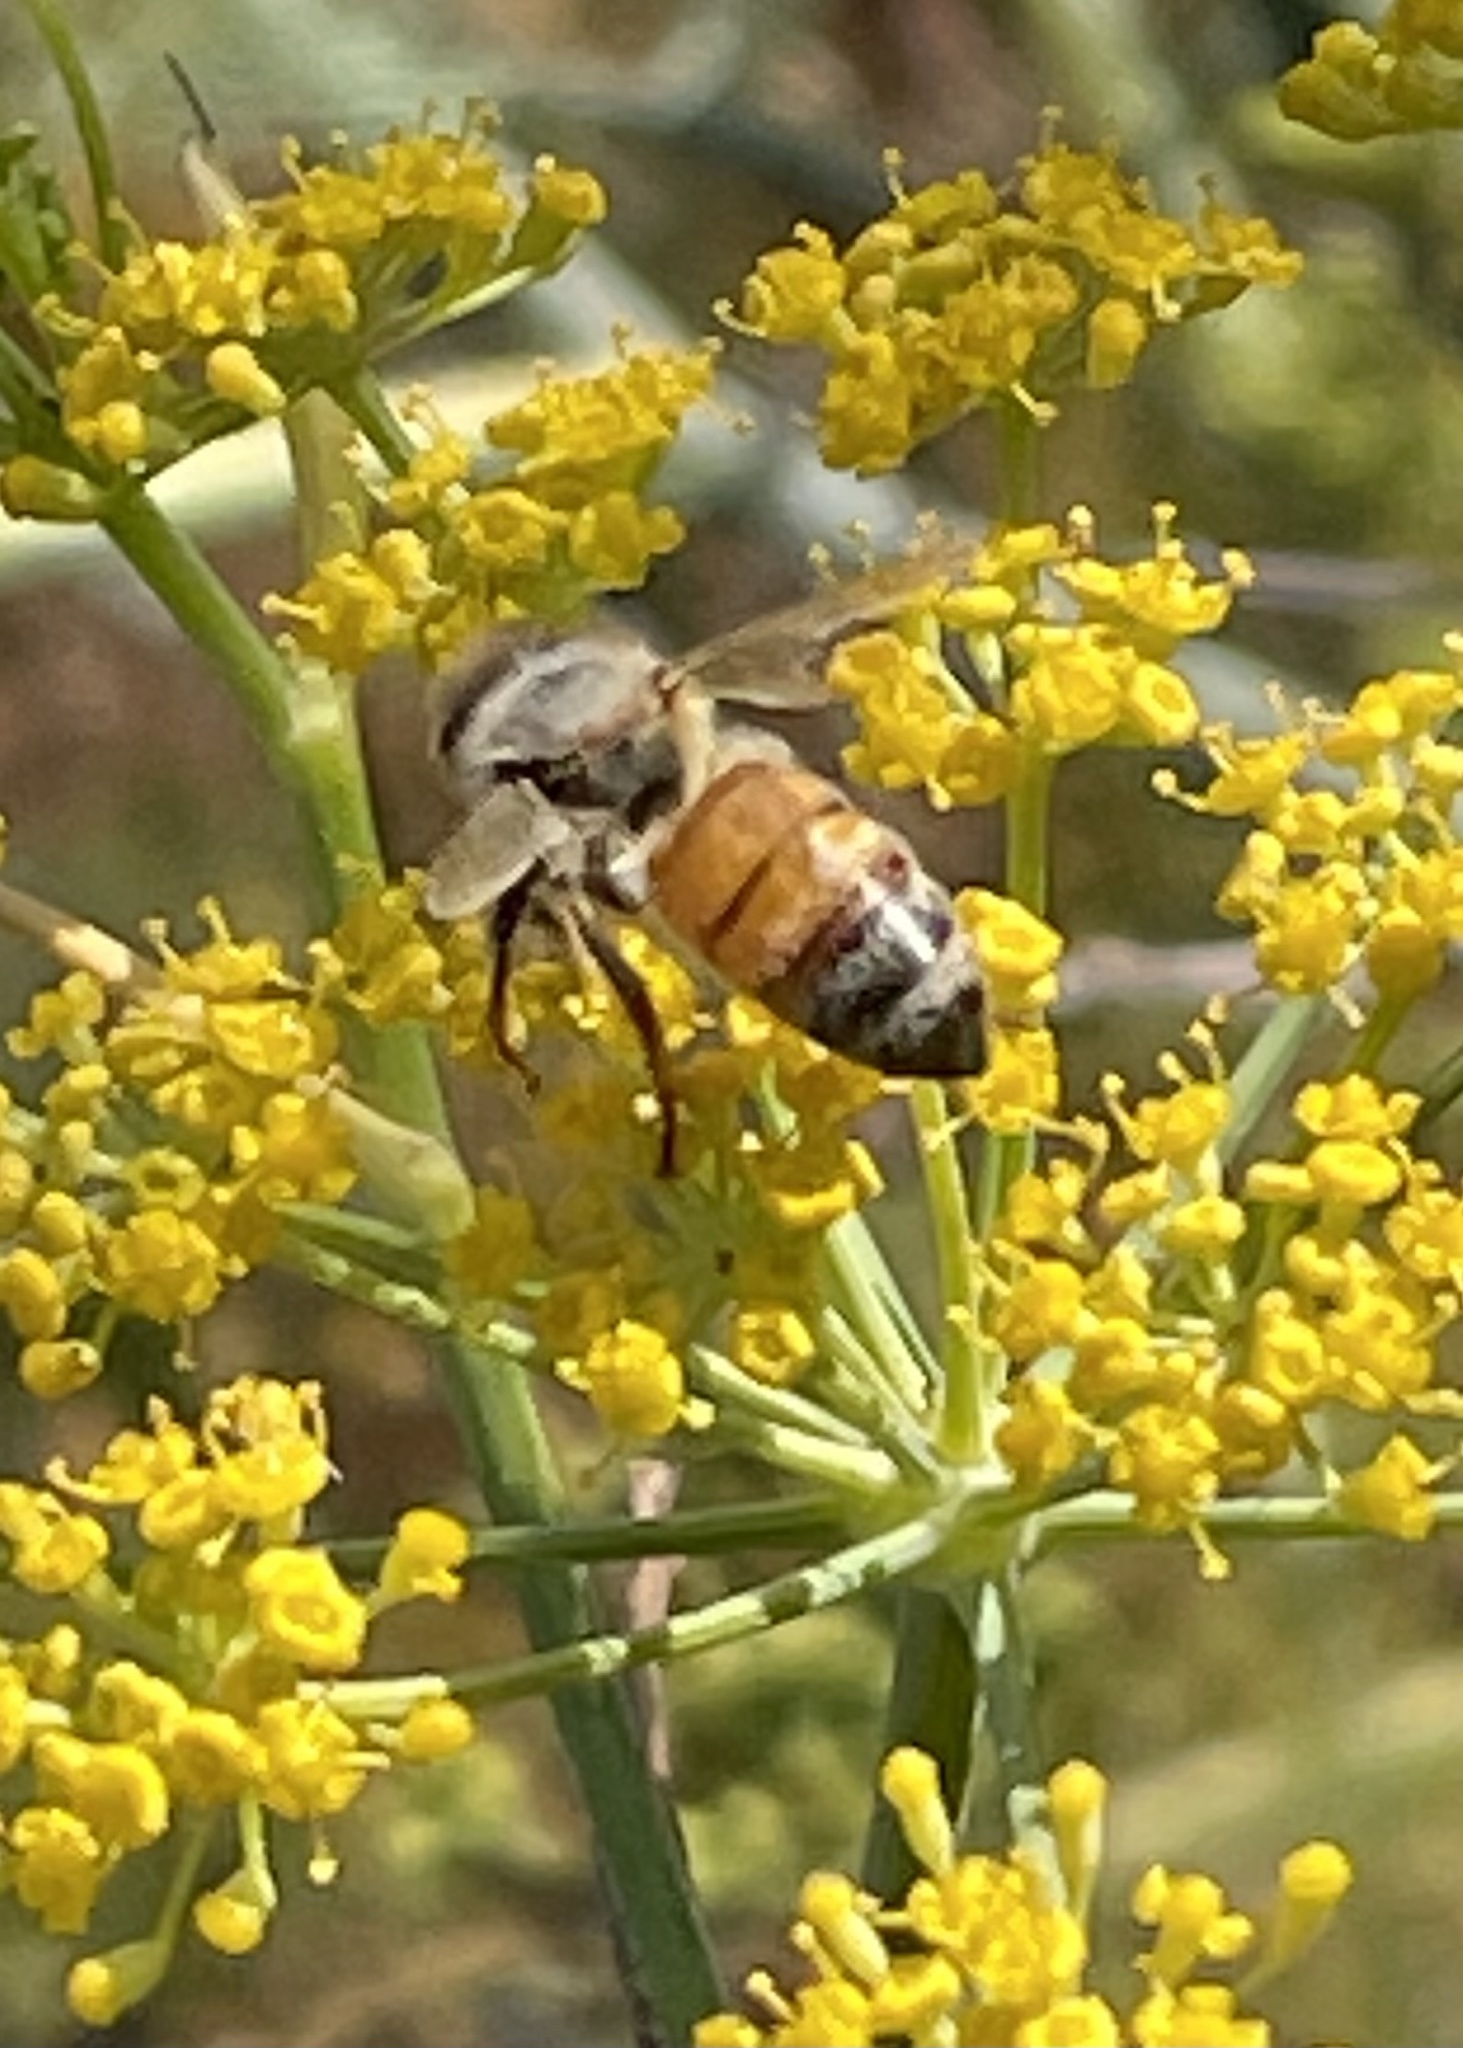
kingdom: Animalia
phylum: Arthropoda
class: Insecta
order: Hymenoptera
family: Apidae
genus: Apis
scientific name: Apis mellifera
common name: Honey bee
